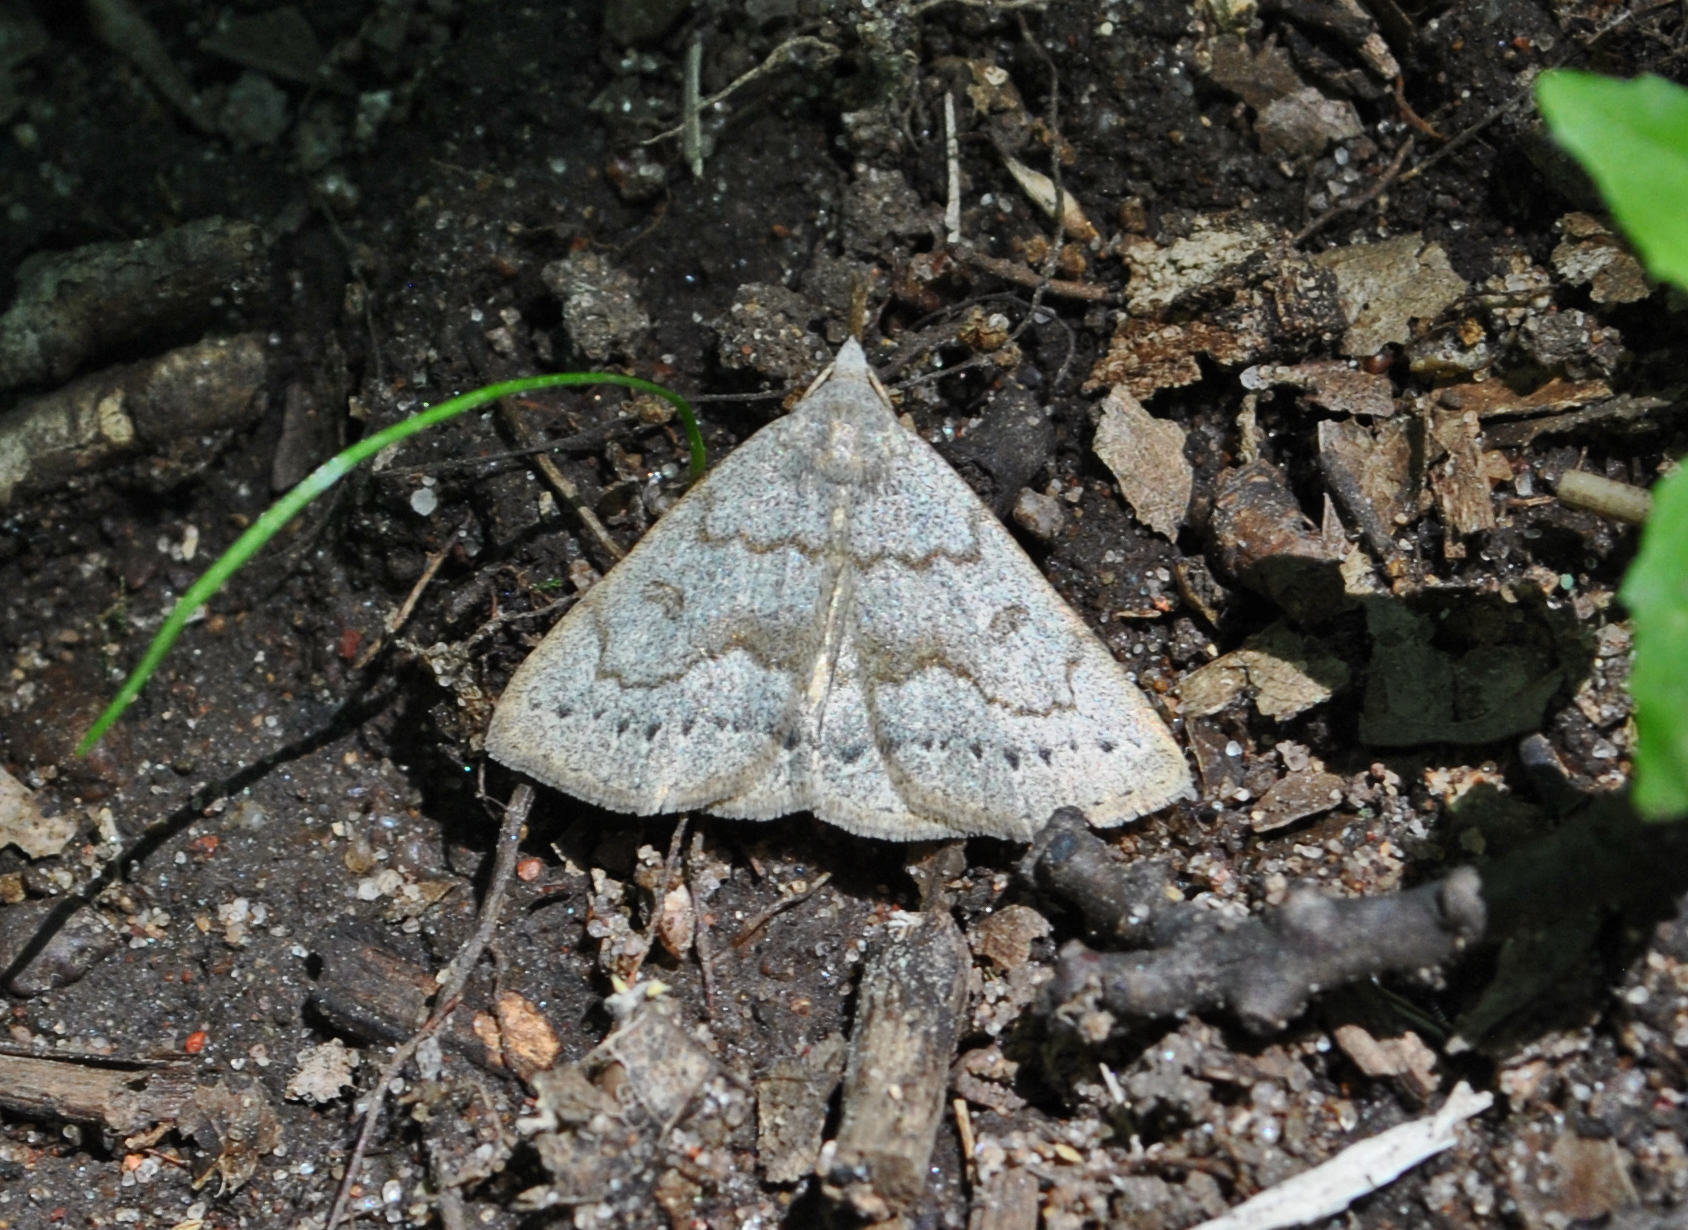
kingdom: Animalia
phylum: Arthropoda
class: Insecta
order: Lepidoptera
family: Erebidae
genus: Macrochilo
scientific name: Macrochilo morbidalis
